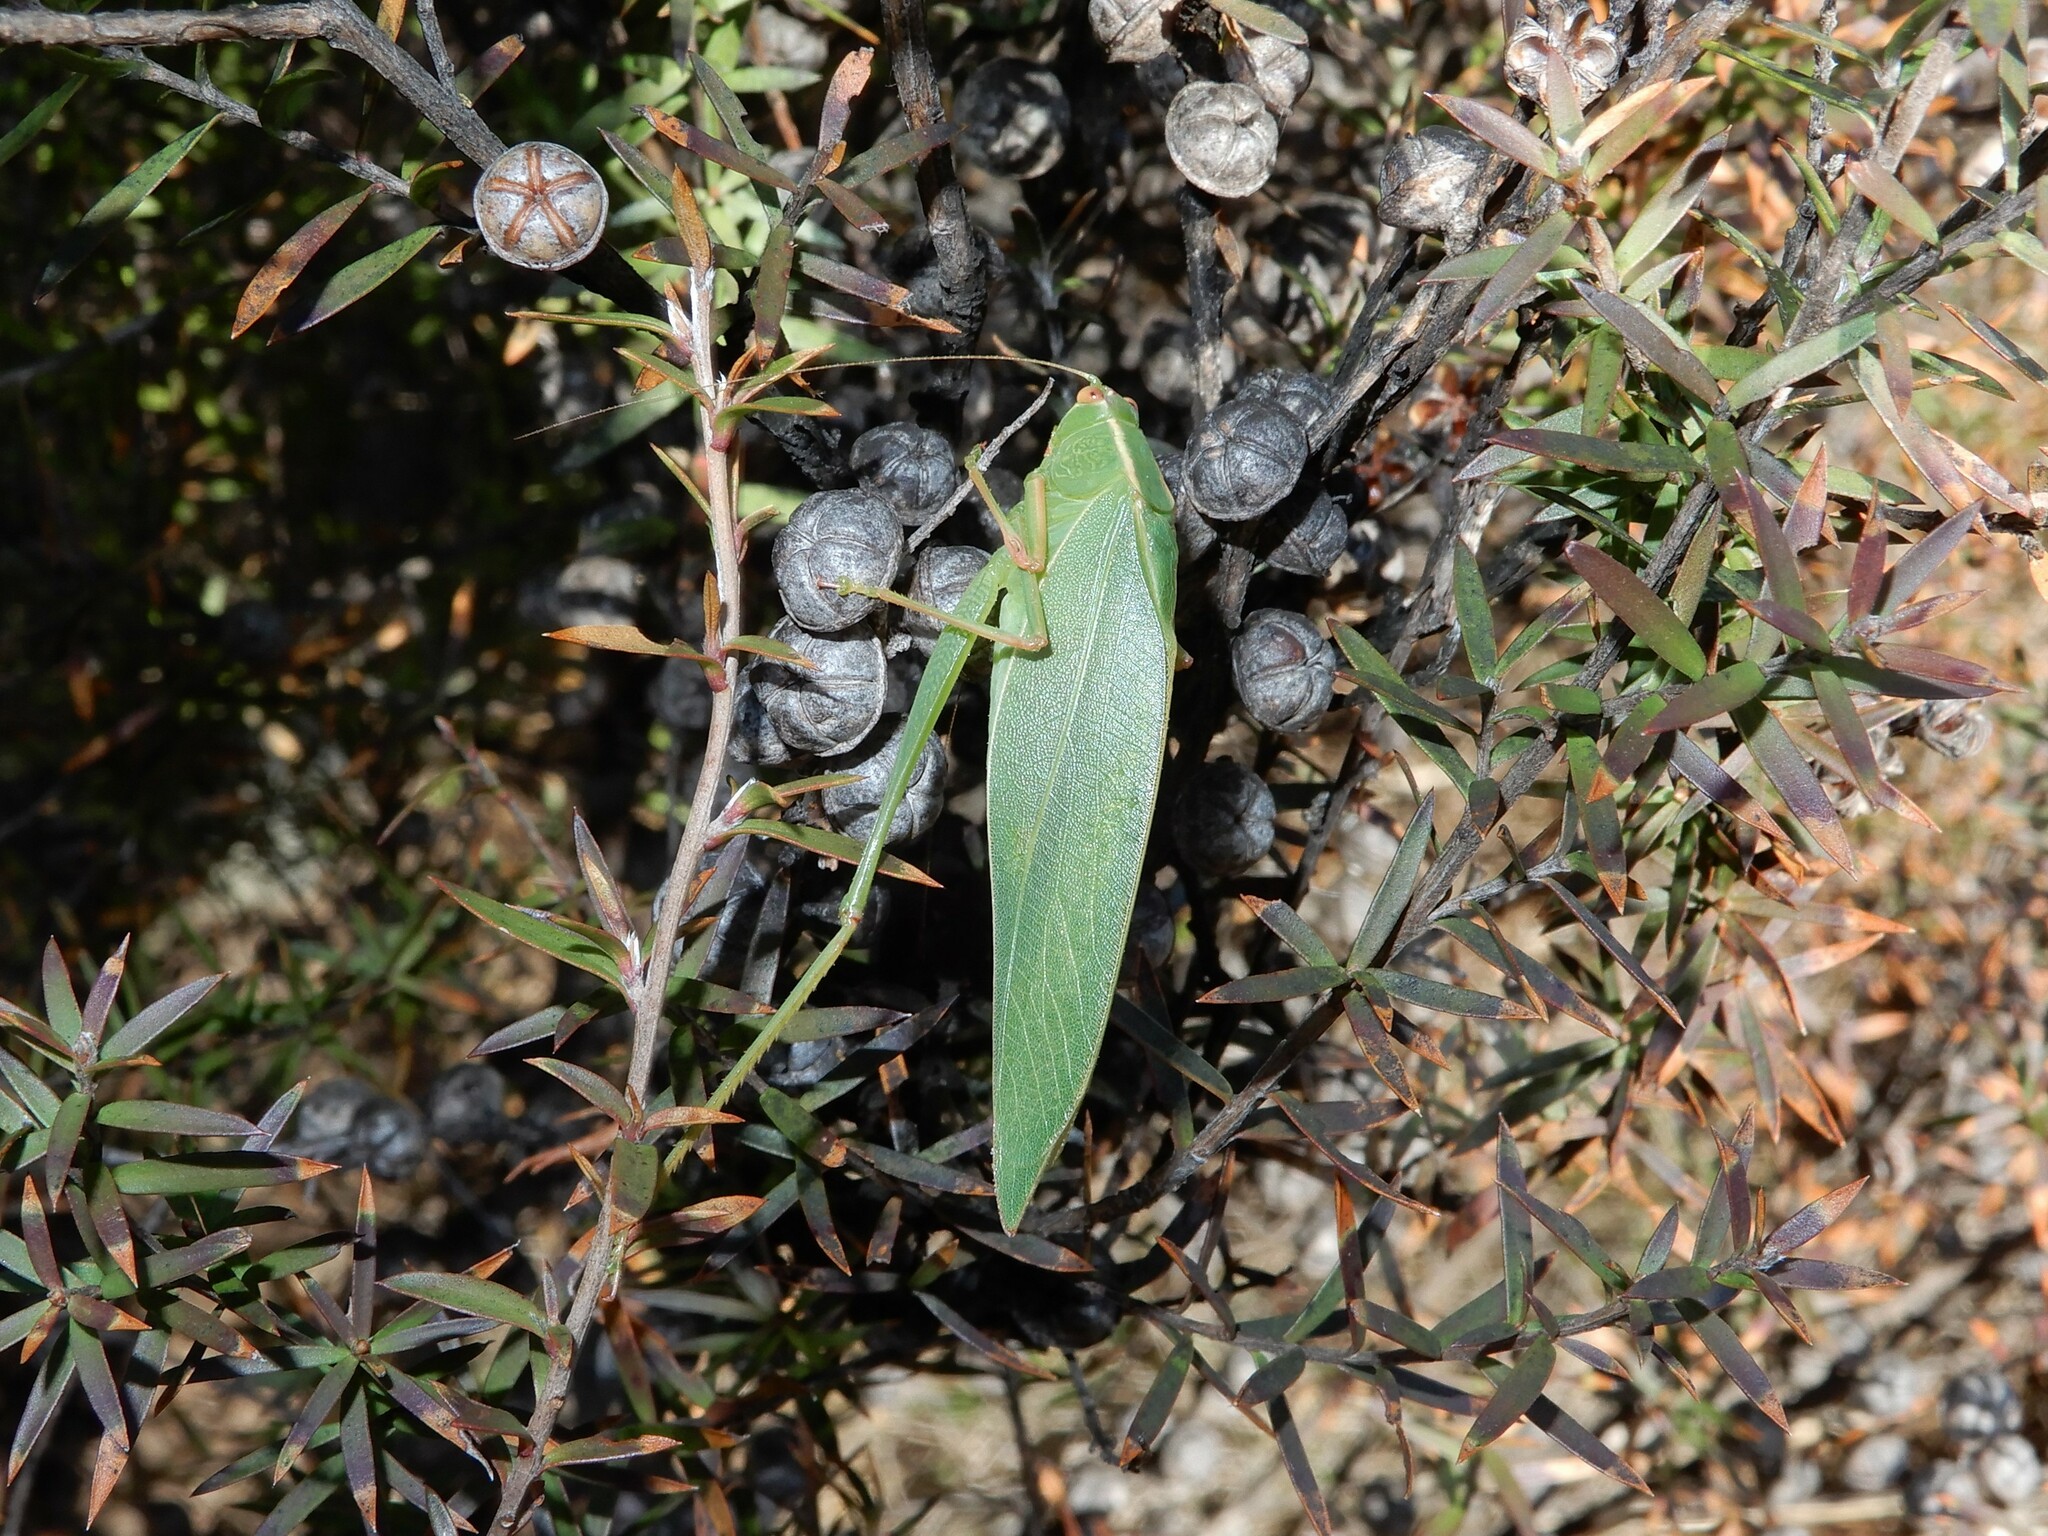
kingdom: Animalia
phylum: Arthropoda
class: Insecta
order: Orthoptera
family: Tettigoniidae
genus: Caedicia
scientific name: Caedicia simplex
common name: Common garden katydid
